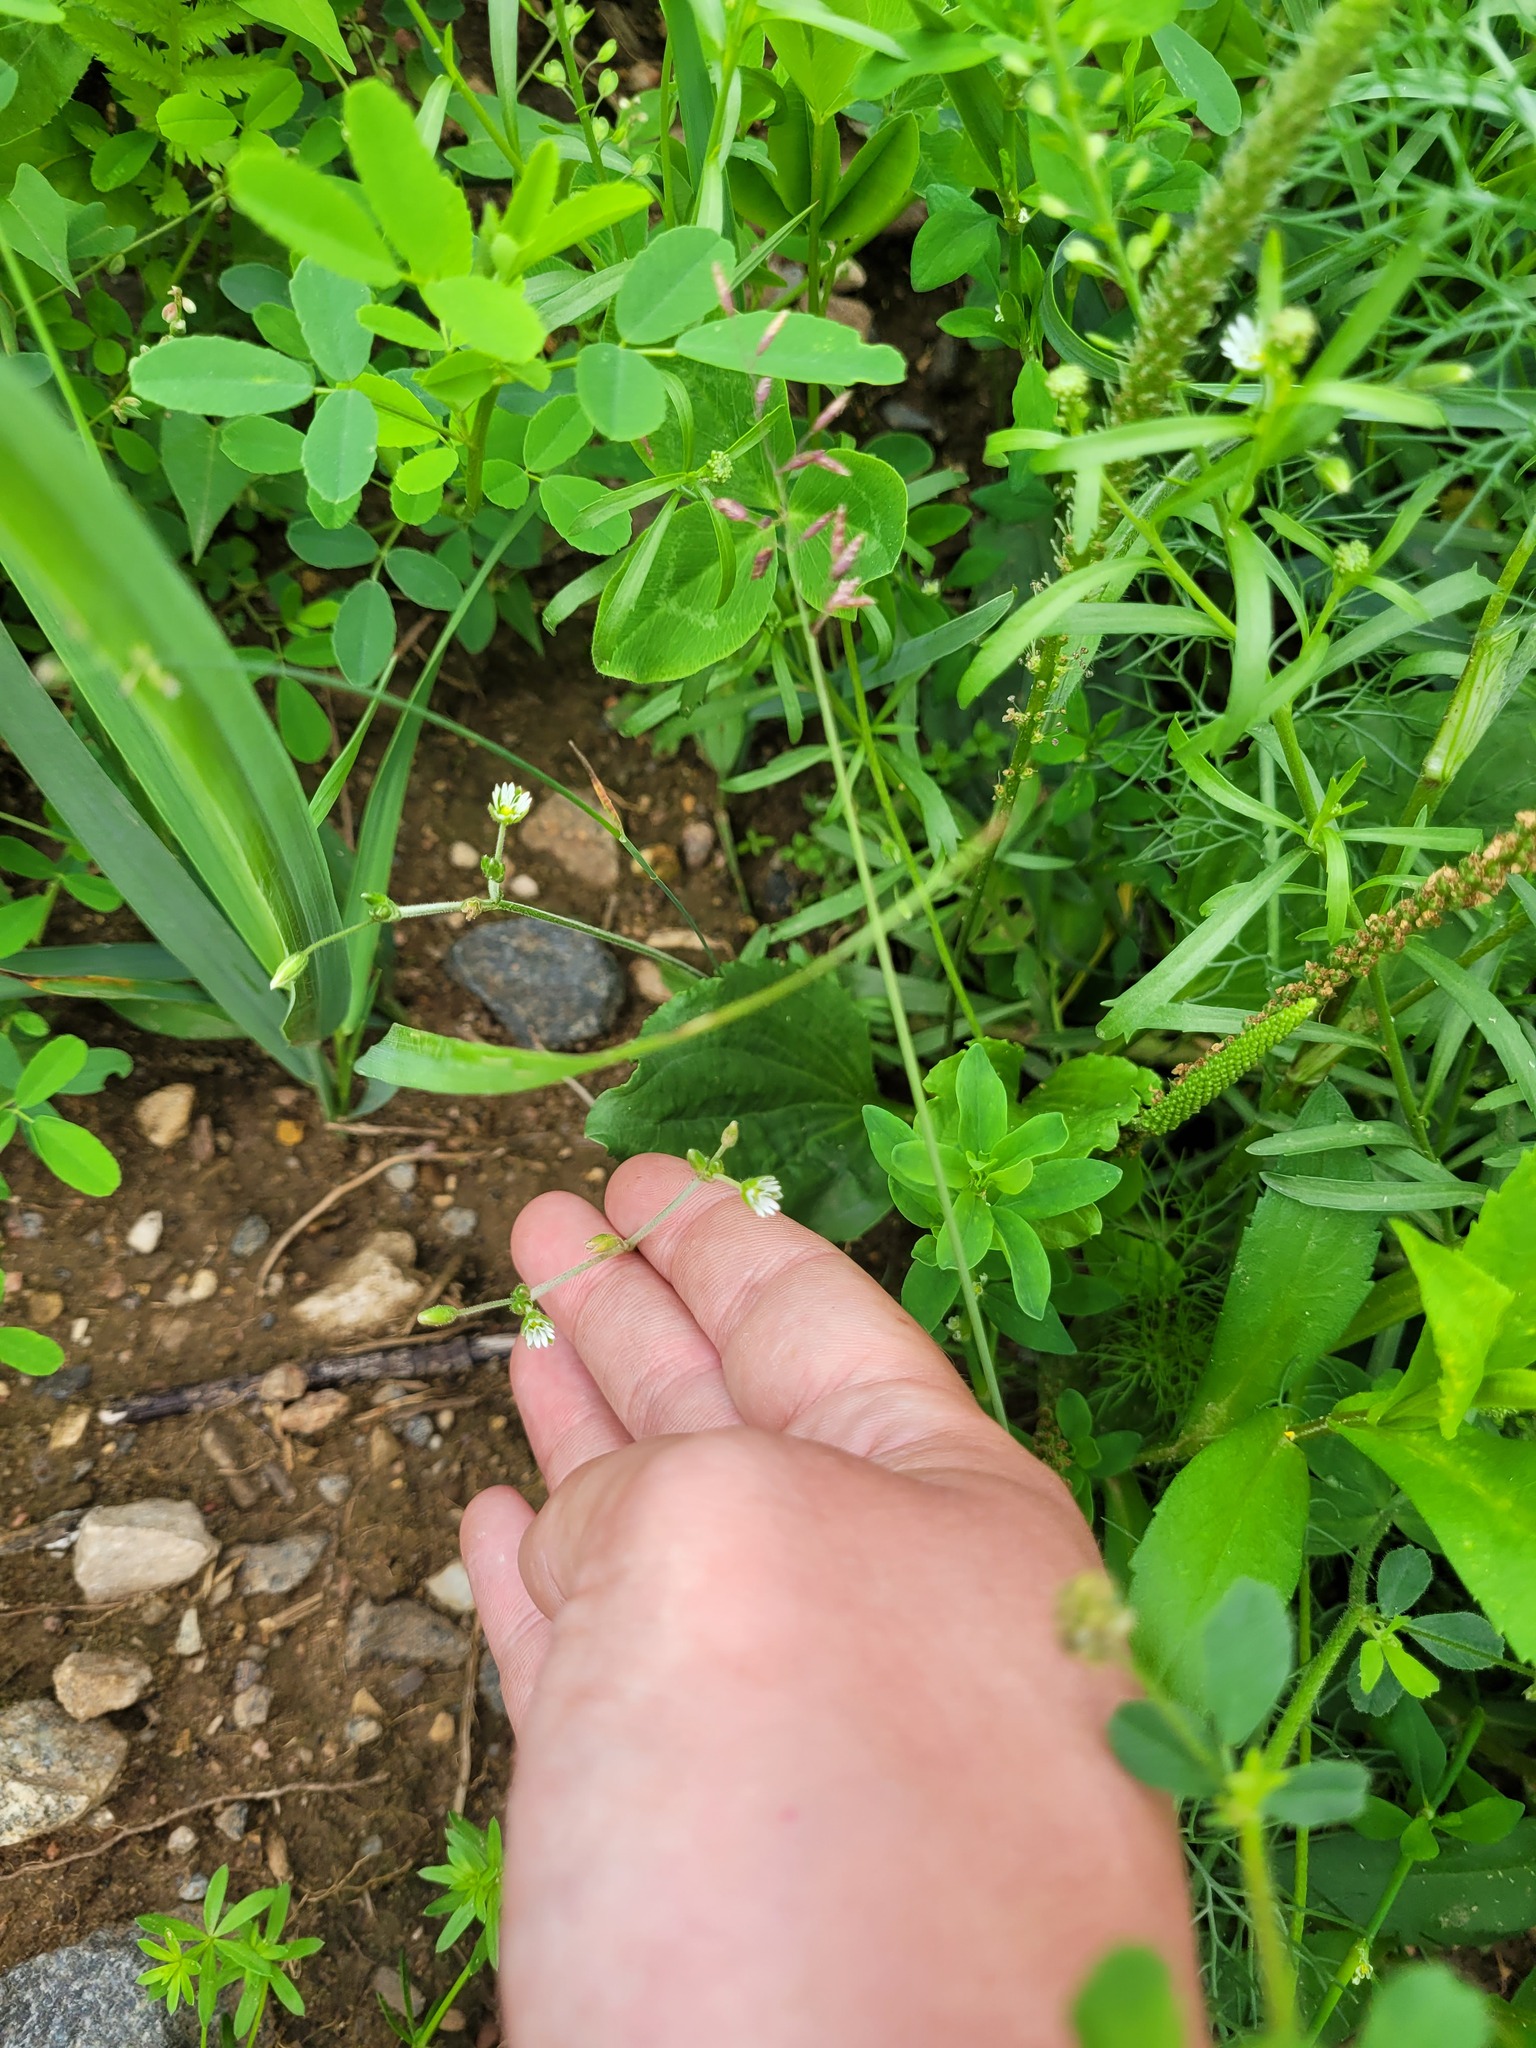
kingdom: Plantae
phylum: Tracheophyta
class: Magnoliopsida
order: Caryophyllales
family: Caryophyllaceae
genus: Cerastium
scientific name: Cerastium holosteoides
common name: Big chickweed
